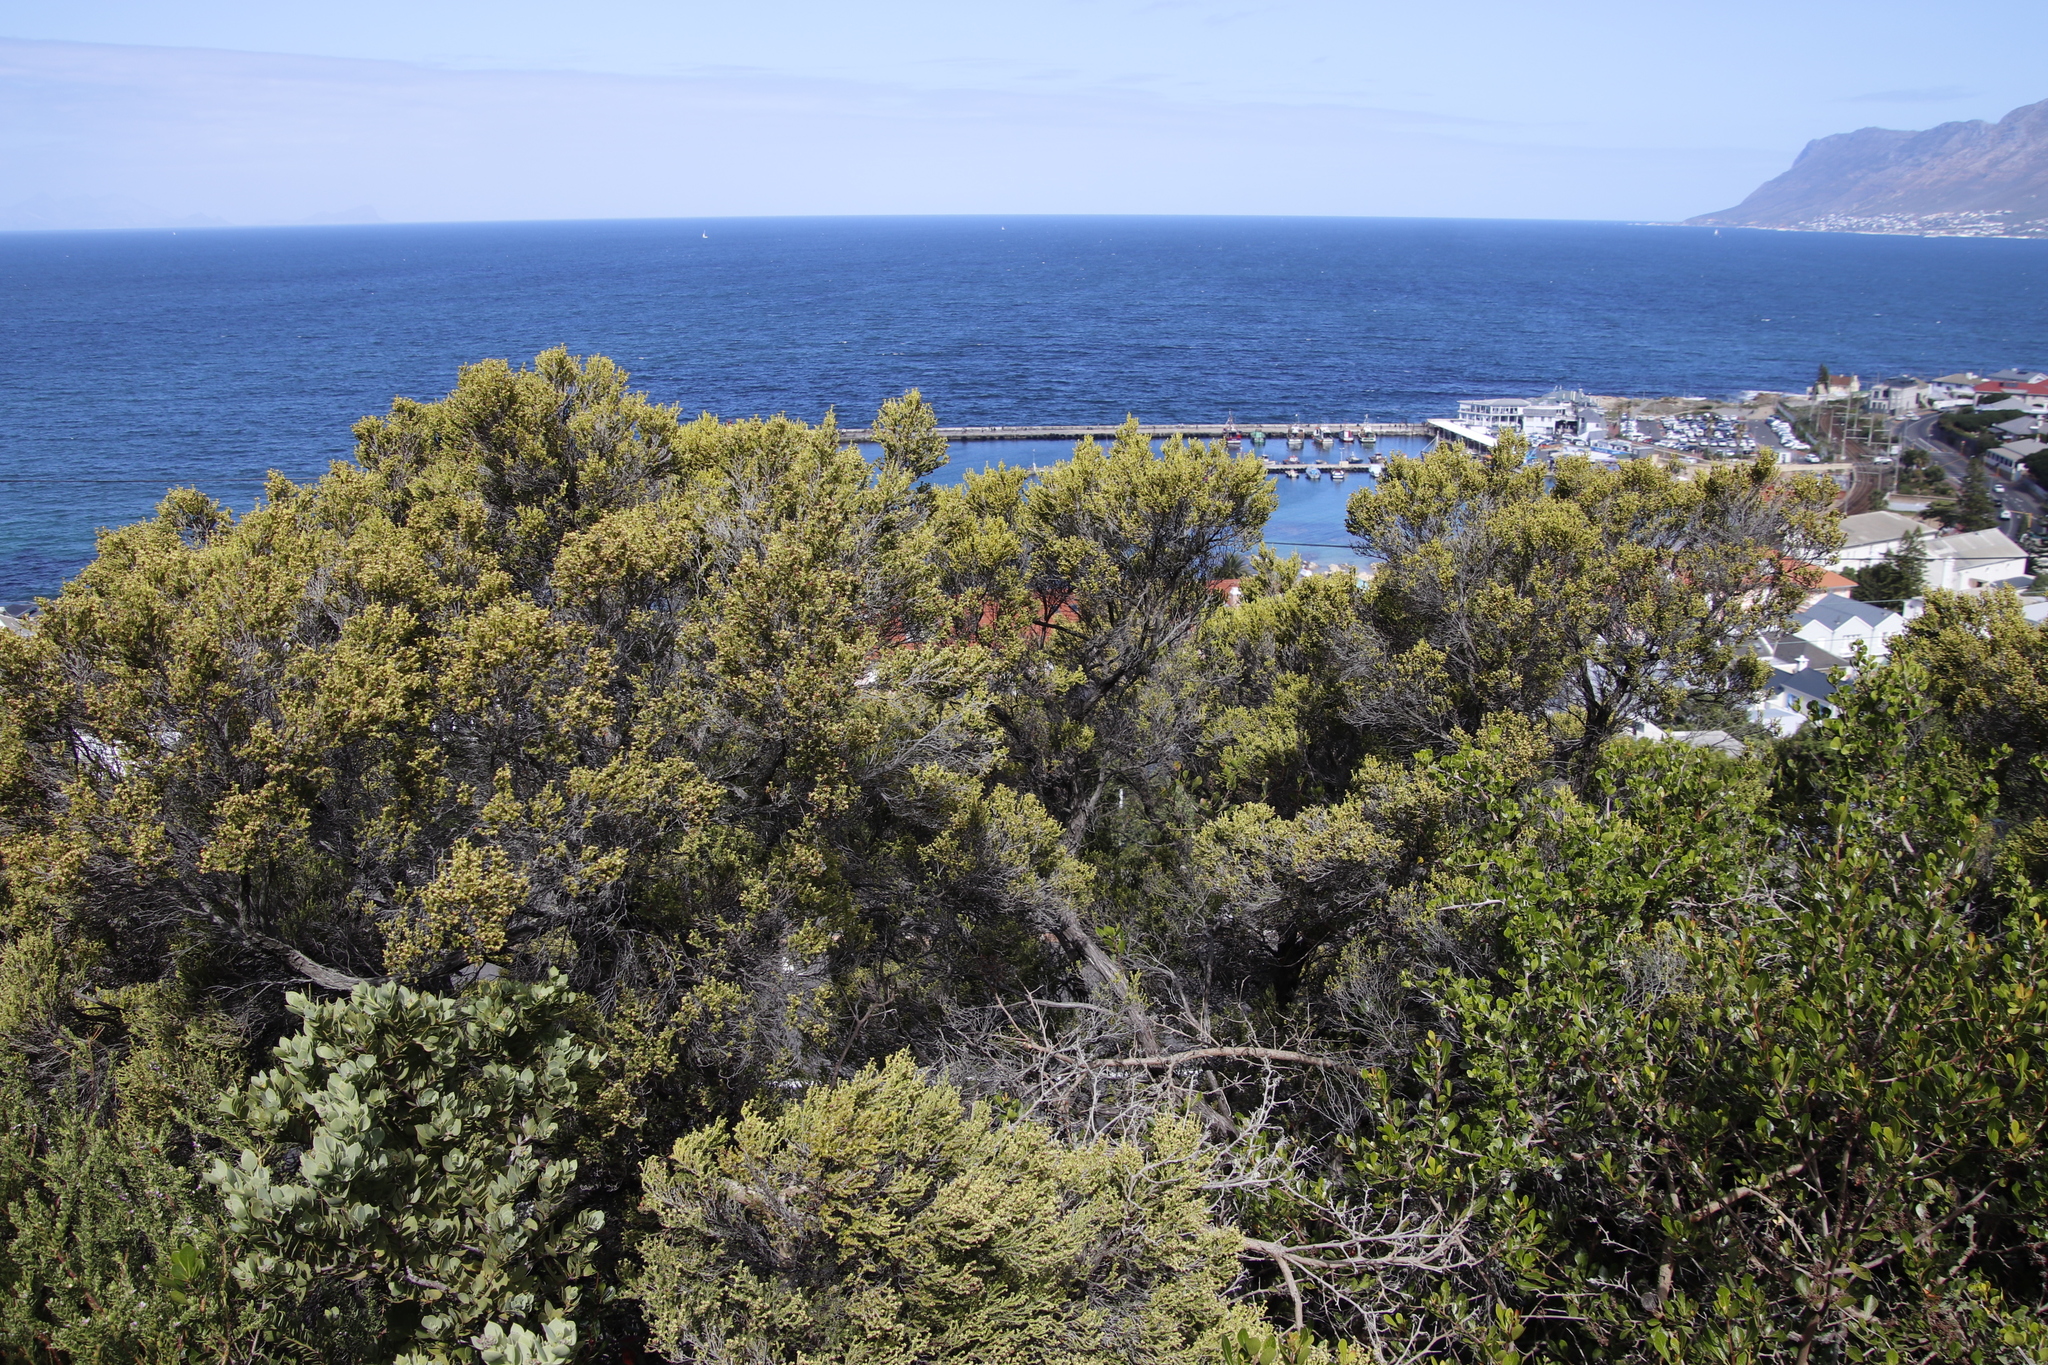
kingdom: Plantae
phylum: Tracheophyta
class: Magnoliopsida
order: Ericales
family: Ericaceae
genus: Erica
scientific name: Erica tristis
